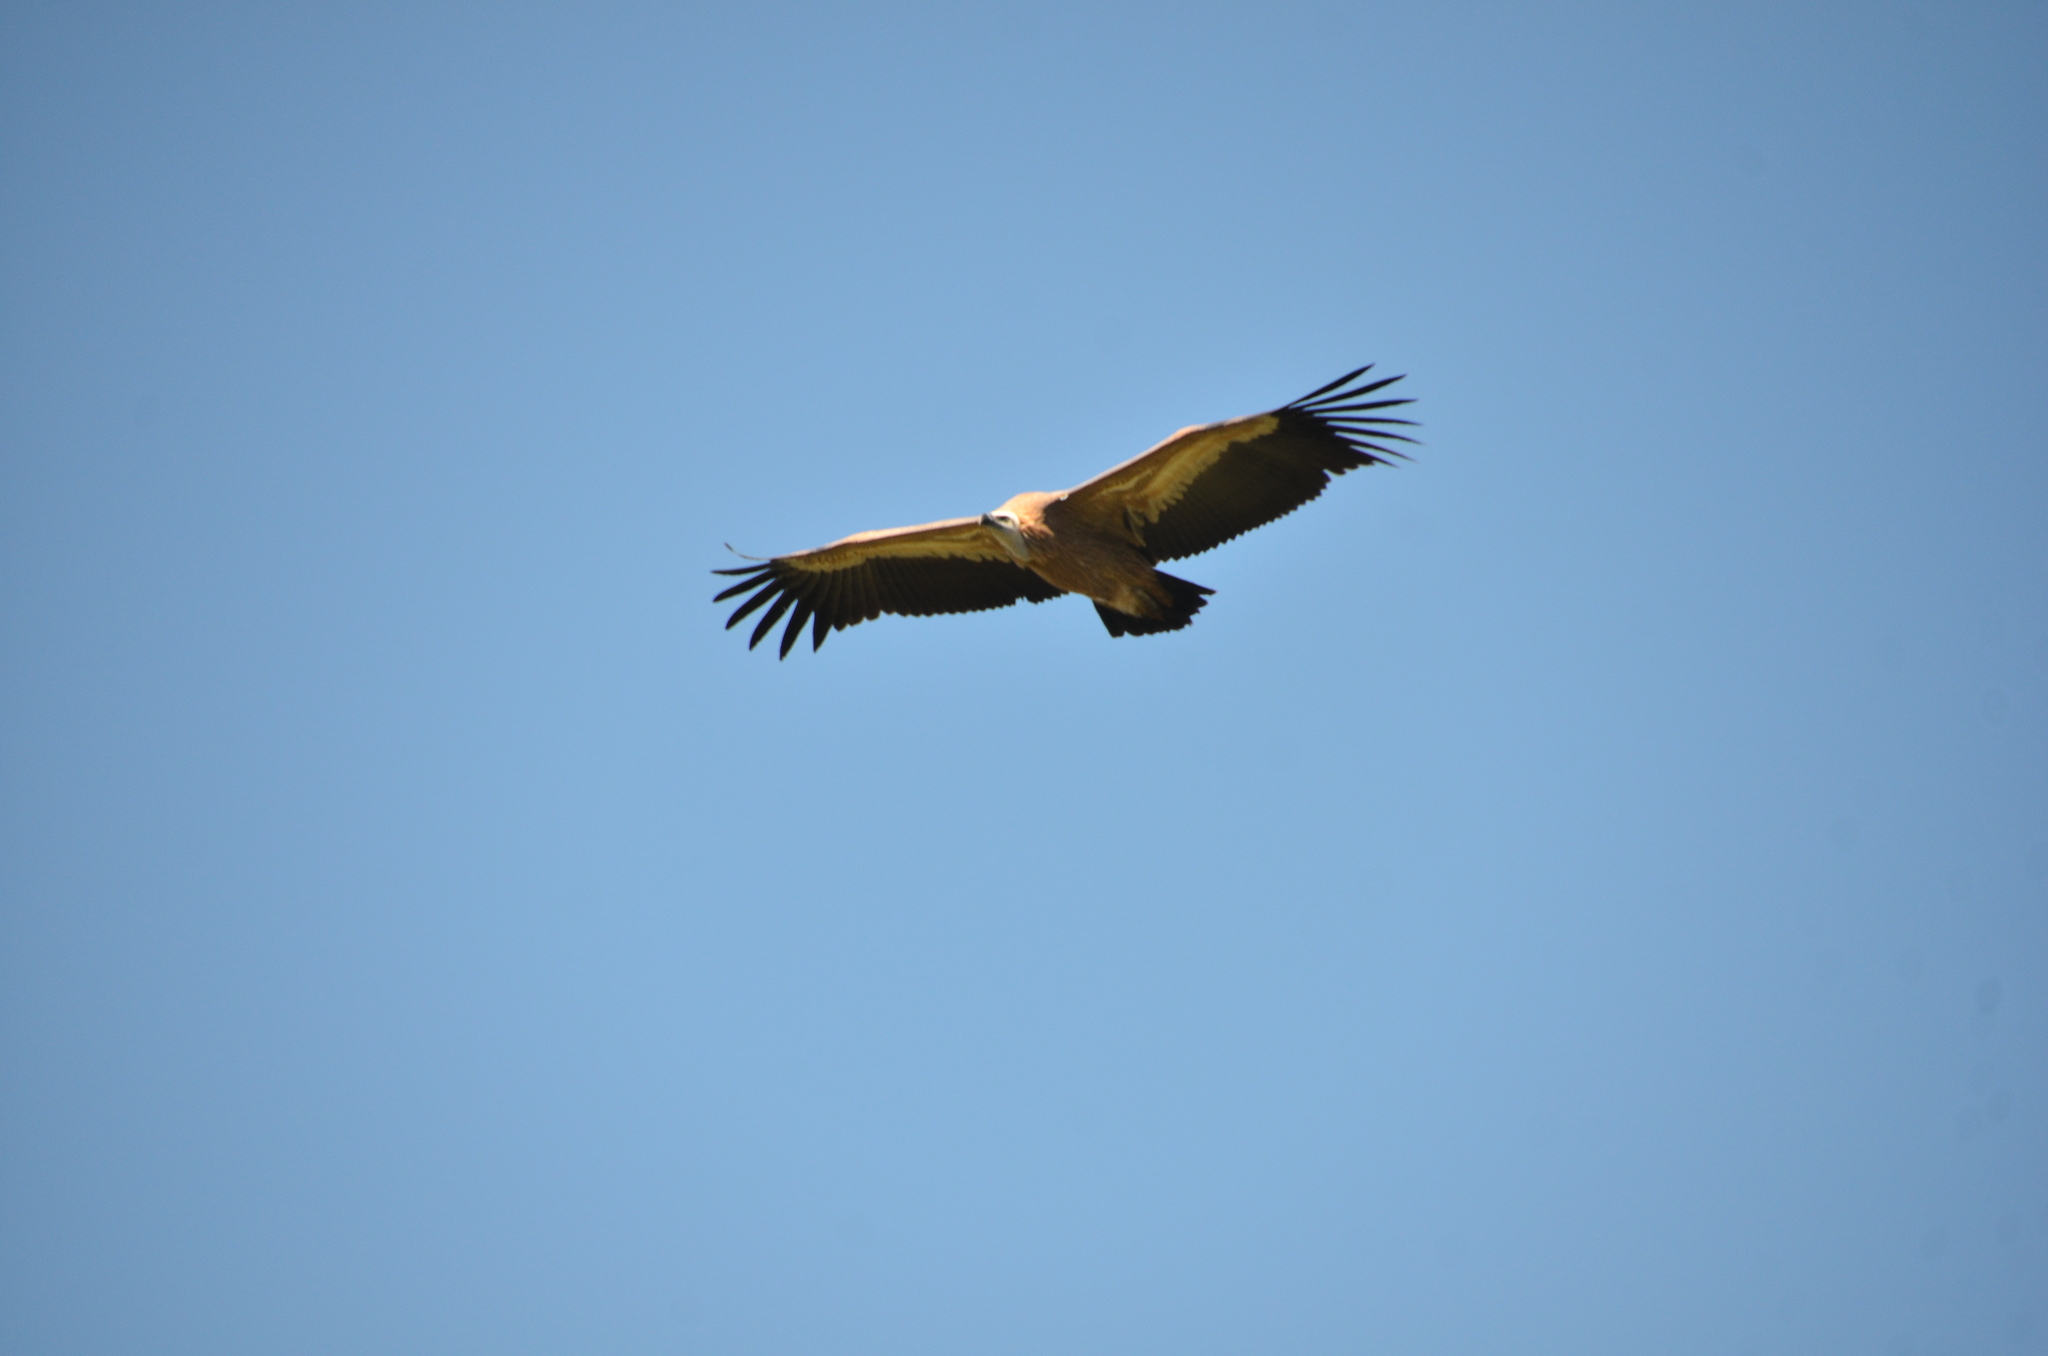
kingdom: Animalia
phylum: Chordata
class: Aves
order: Accipitriformes
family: Accipitridae
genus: Gyps
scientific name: Gyps fulvus
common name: Griffon vulture
